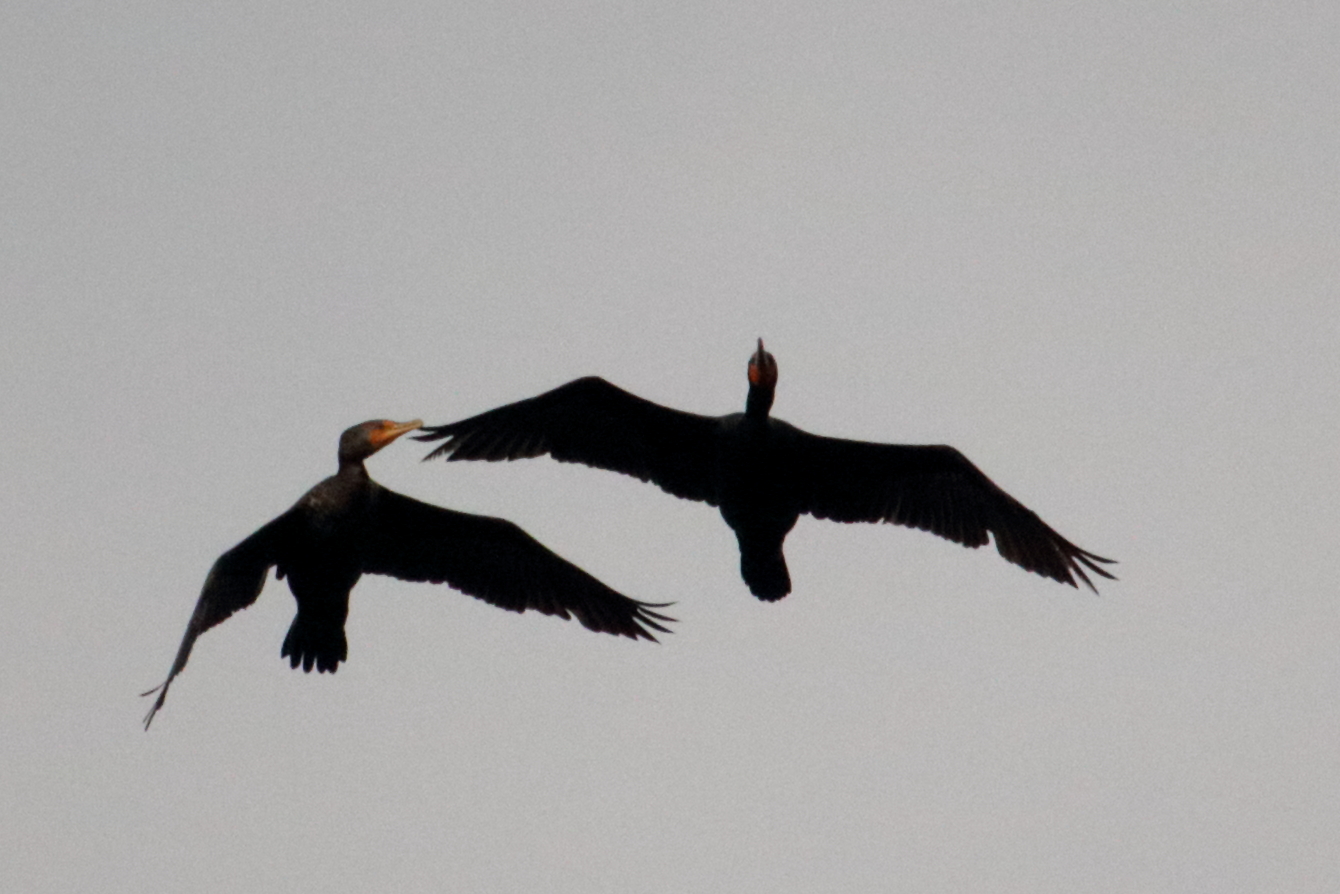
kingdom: Animalia
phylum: Chordata
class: Aves
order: Suliformes
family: Phalacrocoracidae
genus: Phalacrocorax
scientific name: Phalacrocorax auritus
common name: Double-crested cormorant
